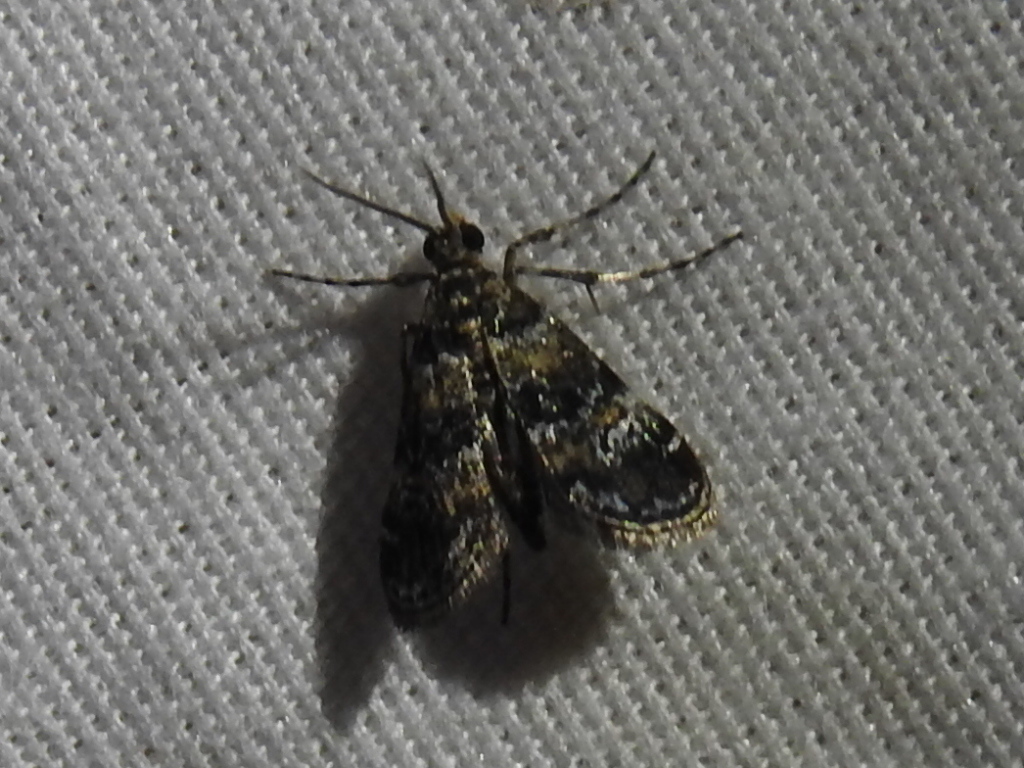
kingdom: Animalia
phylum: Arthropoda
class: Insecta
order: Lepidoptera
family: Crambidae
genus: Elophila
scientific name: Elophila obliteralis
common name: Waterlily leafcutter moth
